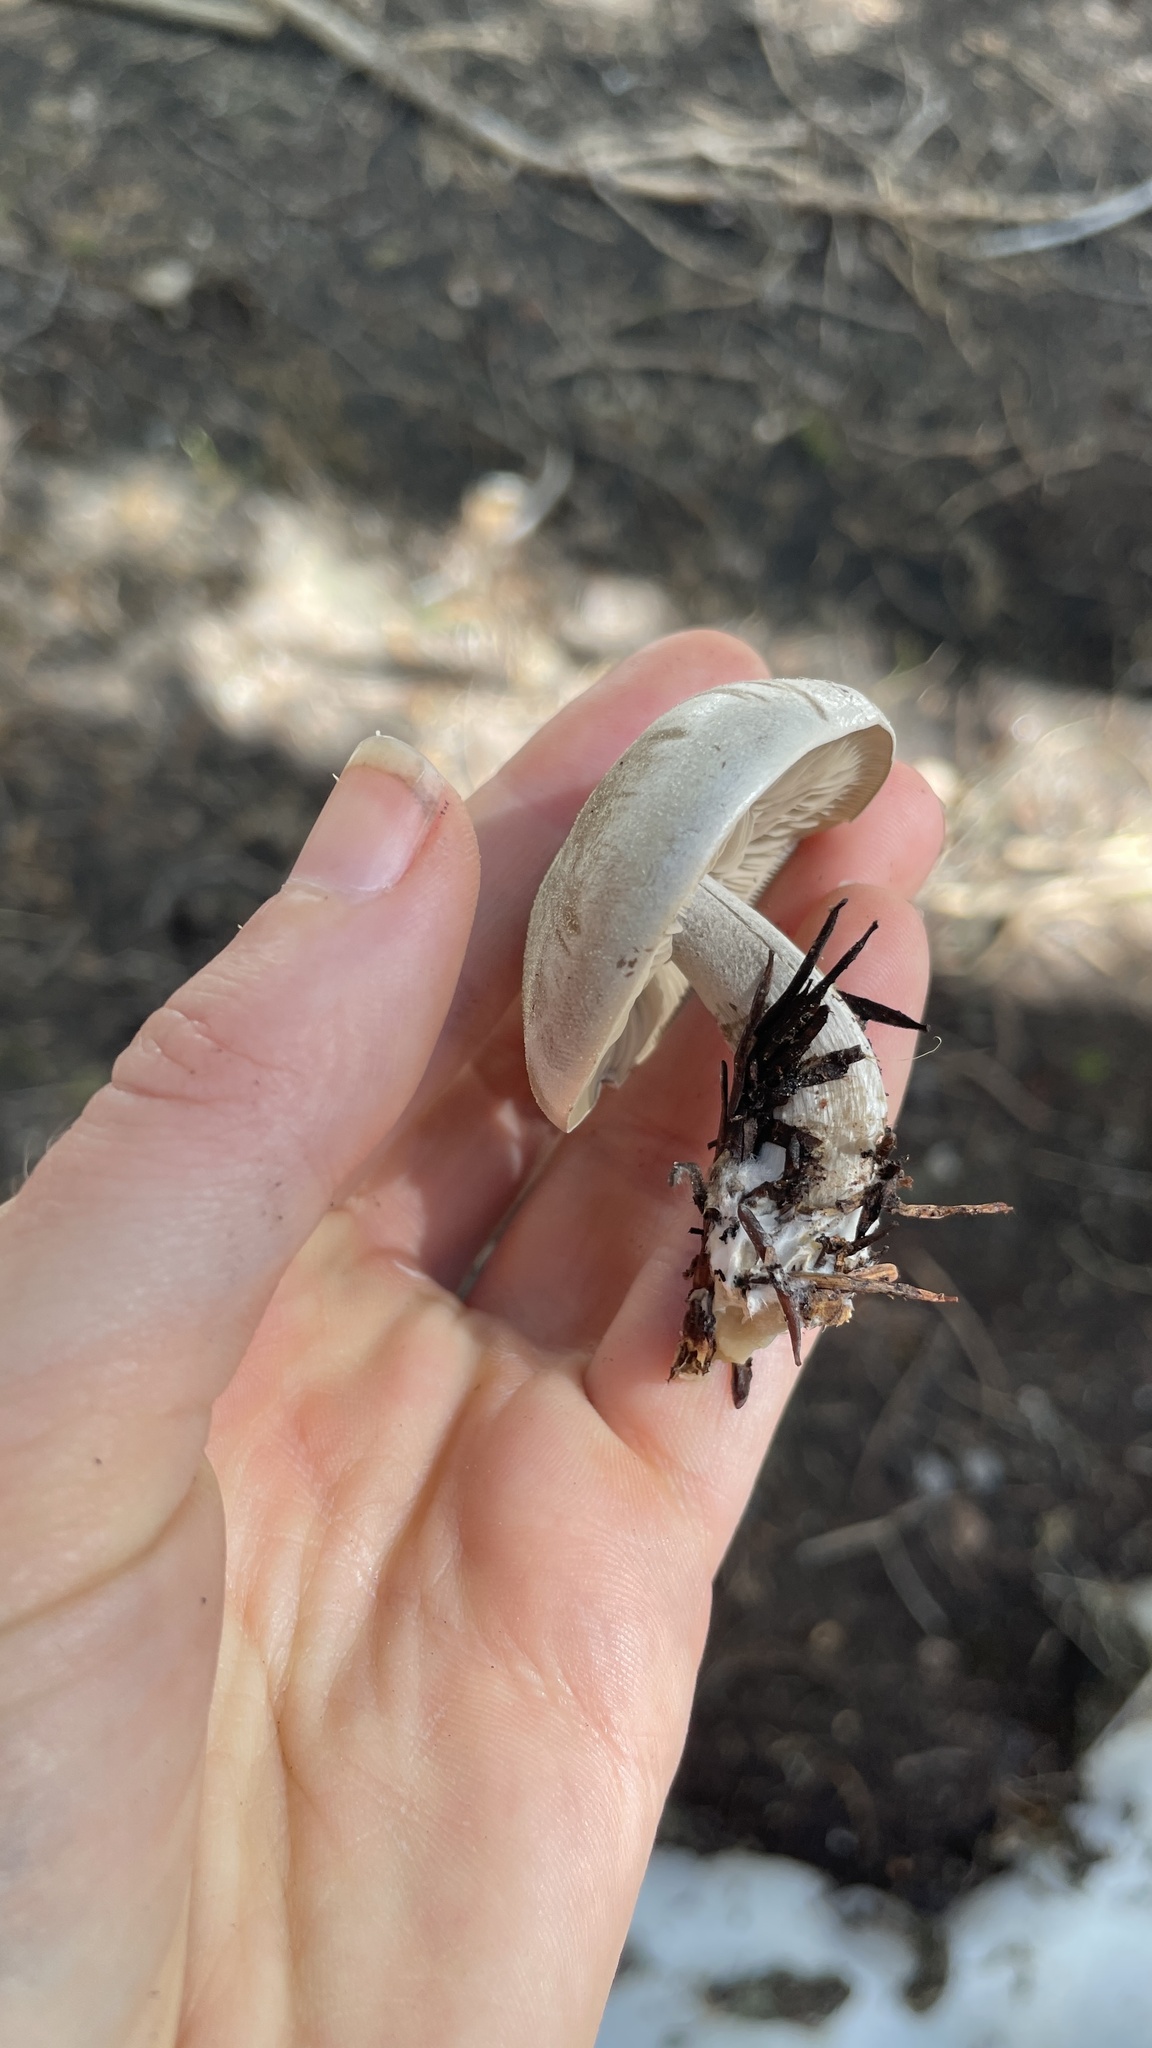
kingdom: Fungi
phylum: Basidiomycota
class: Agaricomycetes
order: Agaricales
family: Tricholomataceae
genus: Clitocybe
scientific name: Clitocybe glacialis
